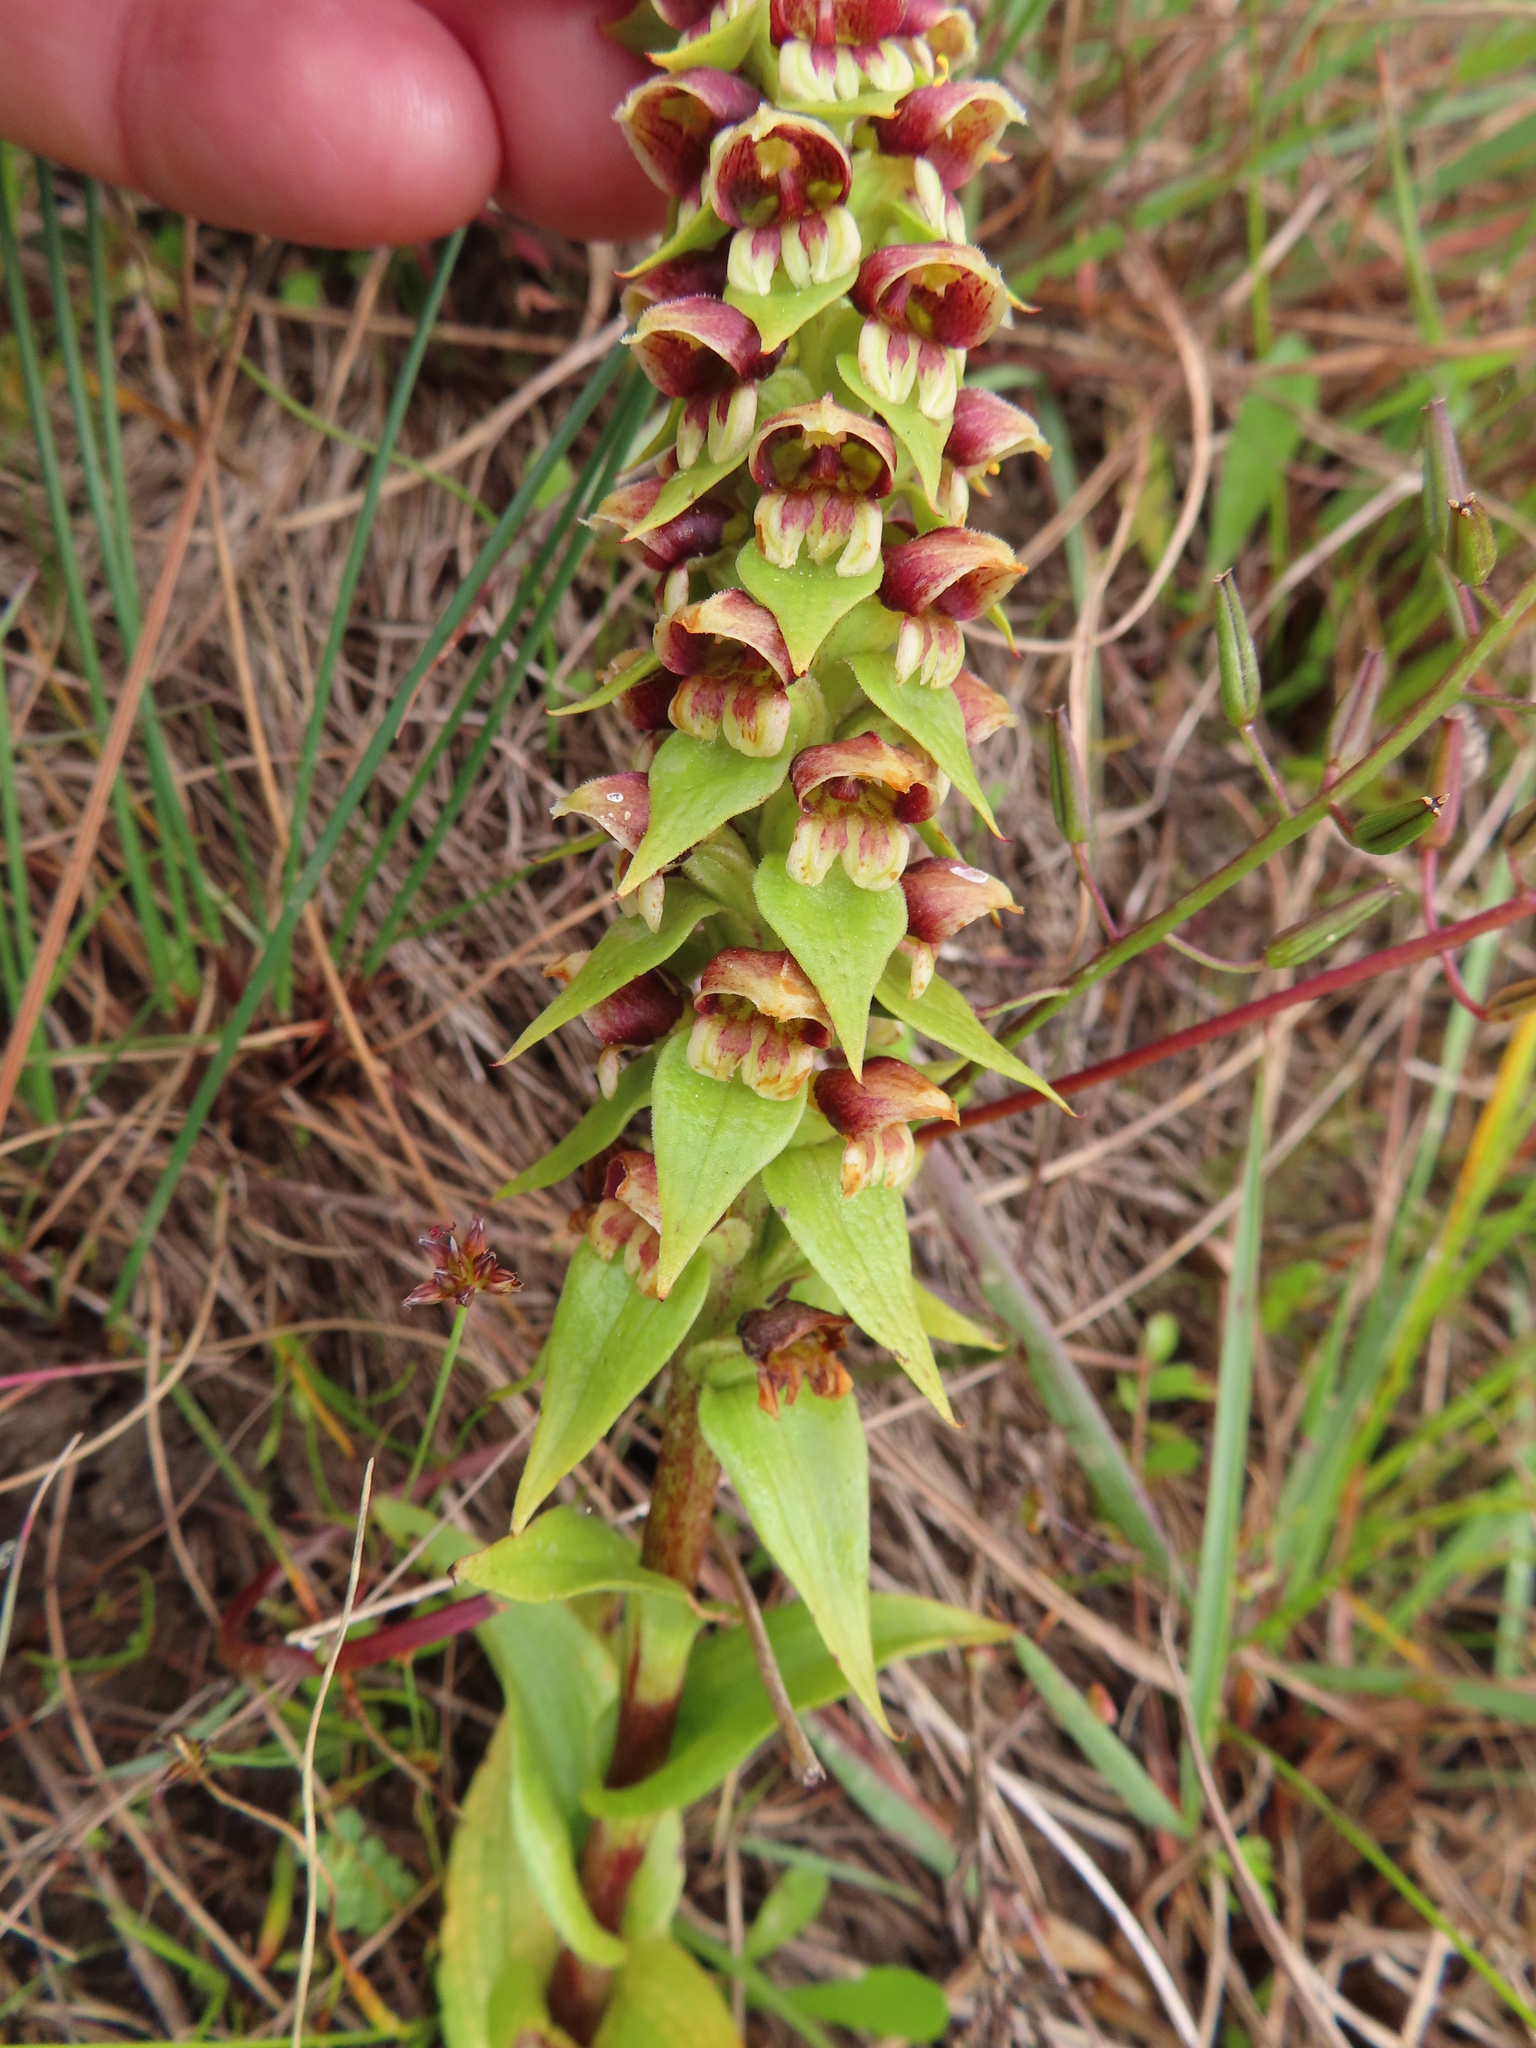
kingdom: Plantae
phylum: Tracheophyta
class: Liliopsida
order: Asparagales
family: Orchidaceae
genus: Satyrium
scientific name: Satyrium bracteatum
